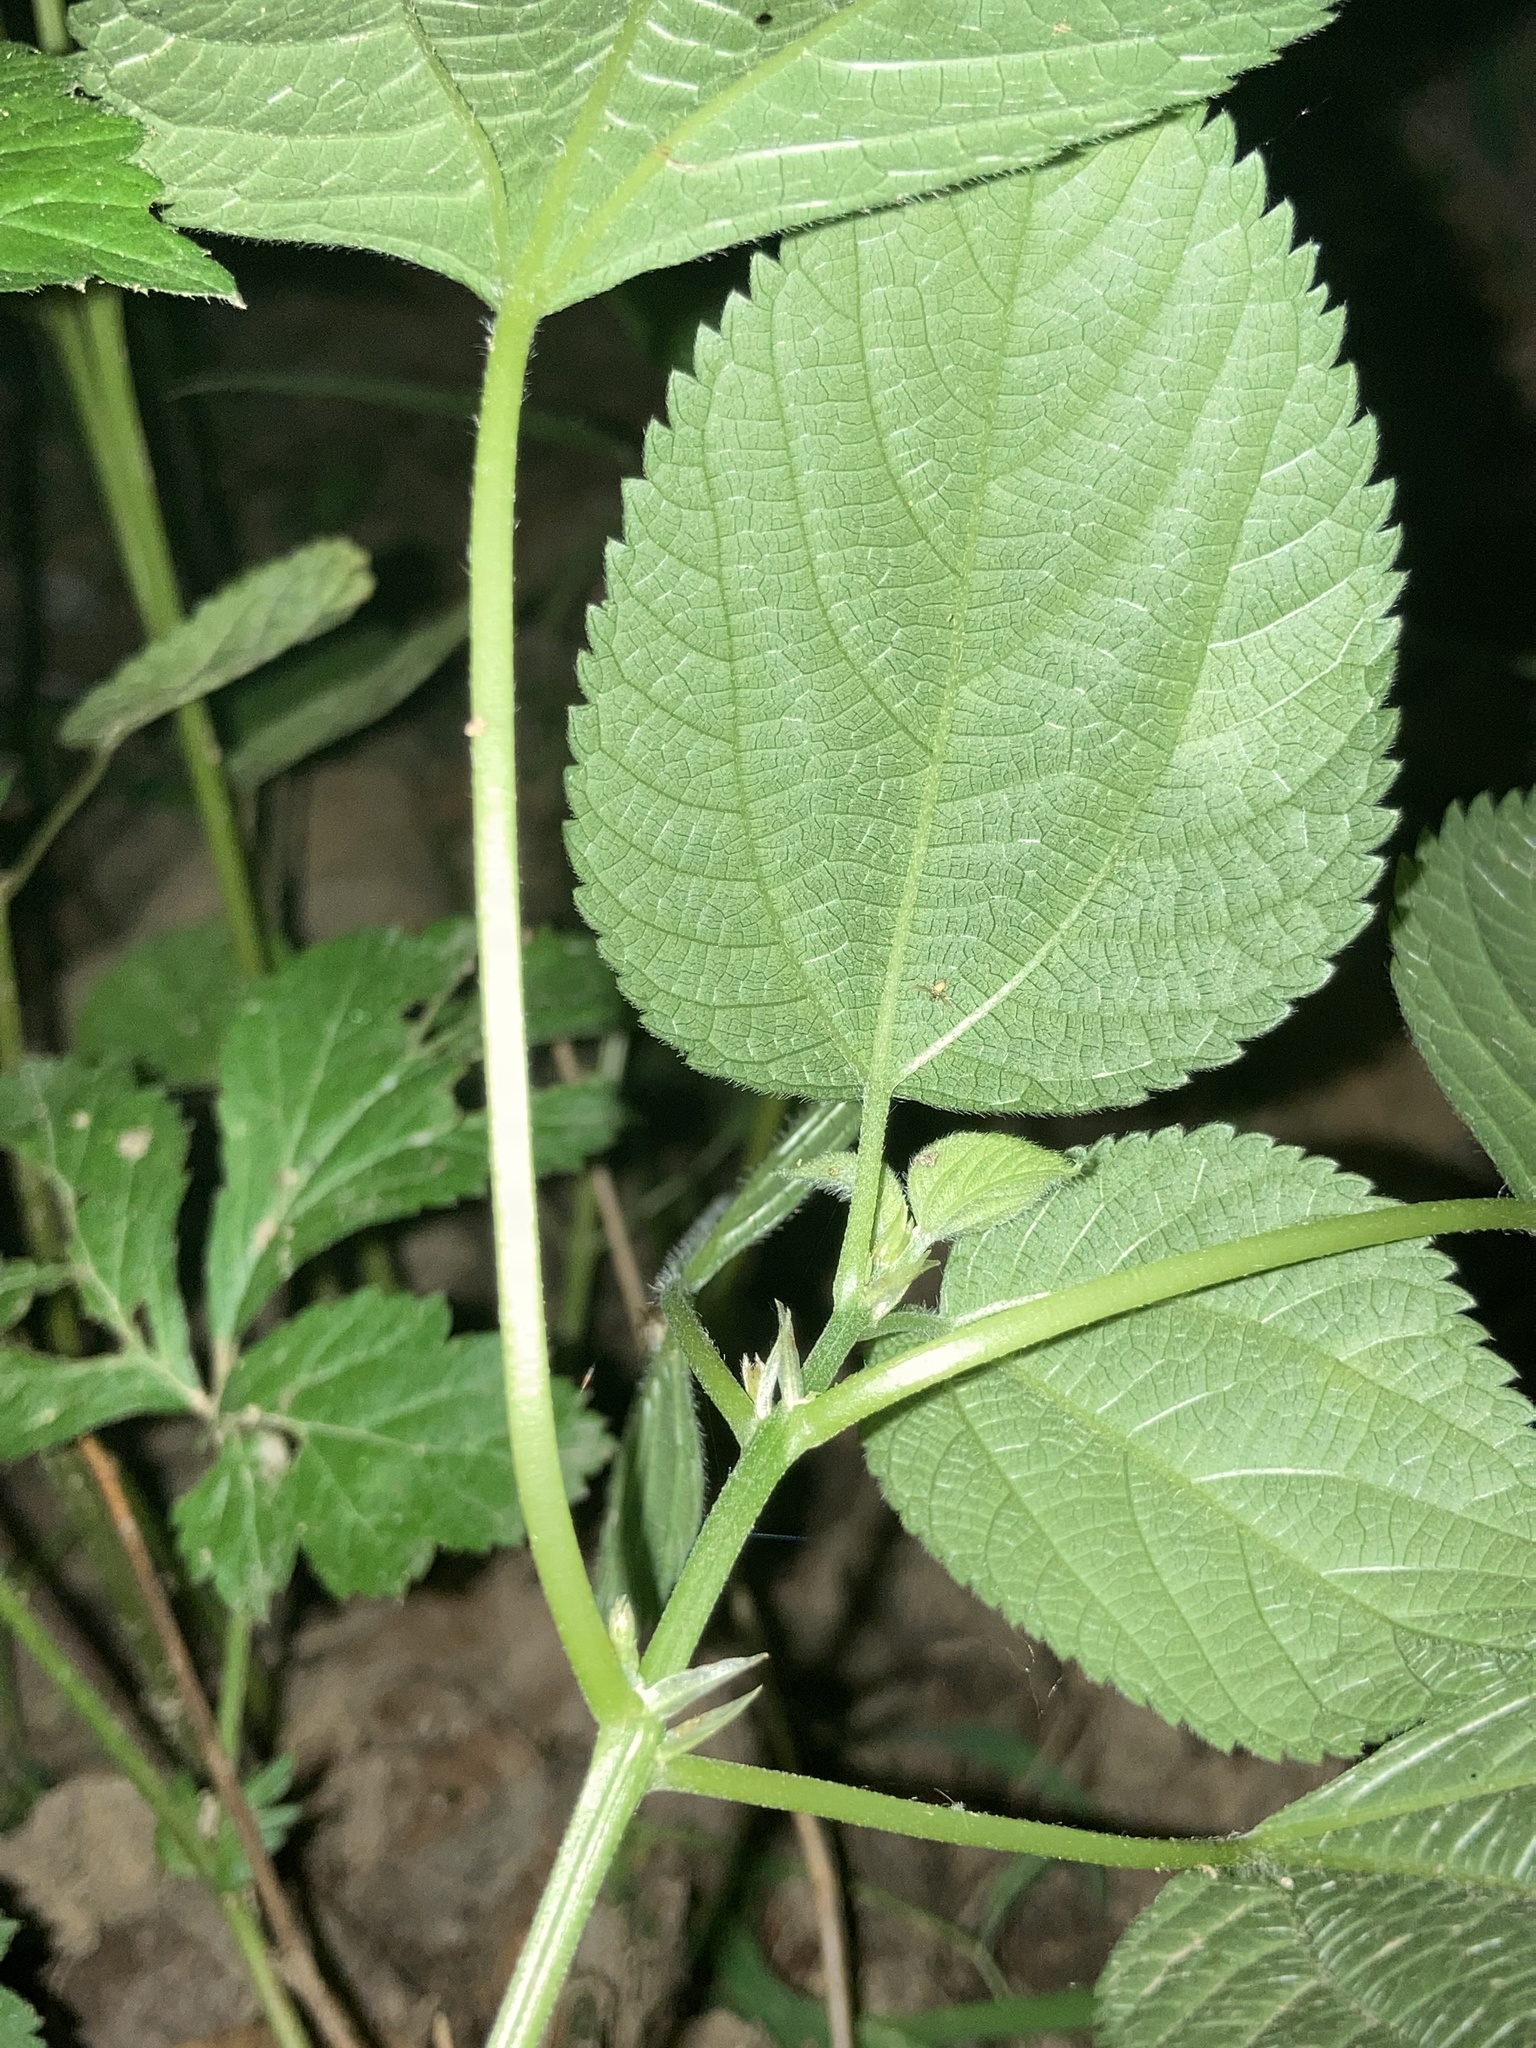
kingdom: Plantae
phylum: Tracheophyta
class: Magnoliopsida
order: Rosales
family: Urticaceae
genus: Boehmeria
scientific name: Boehmeria cylindrica
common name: Bog-hemp
